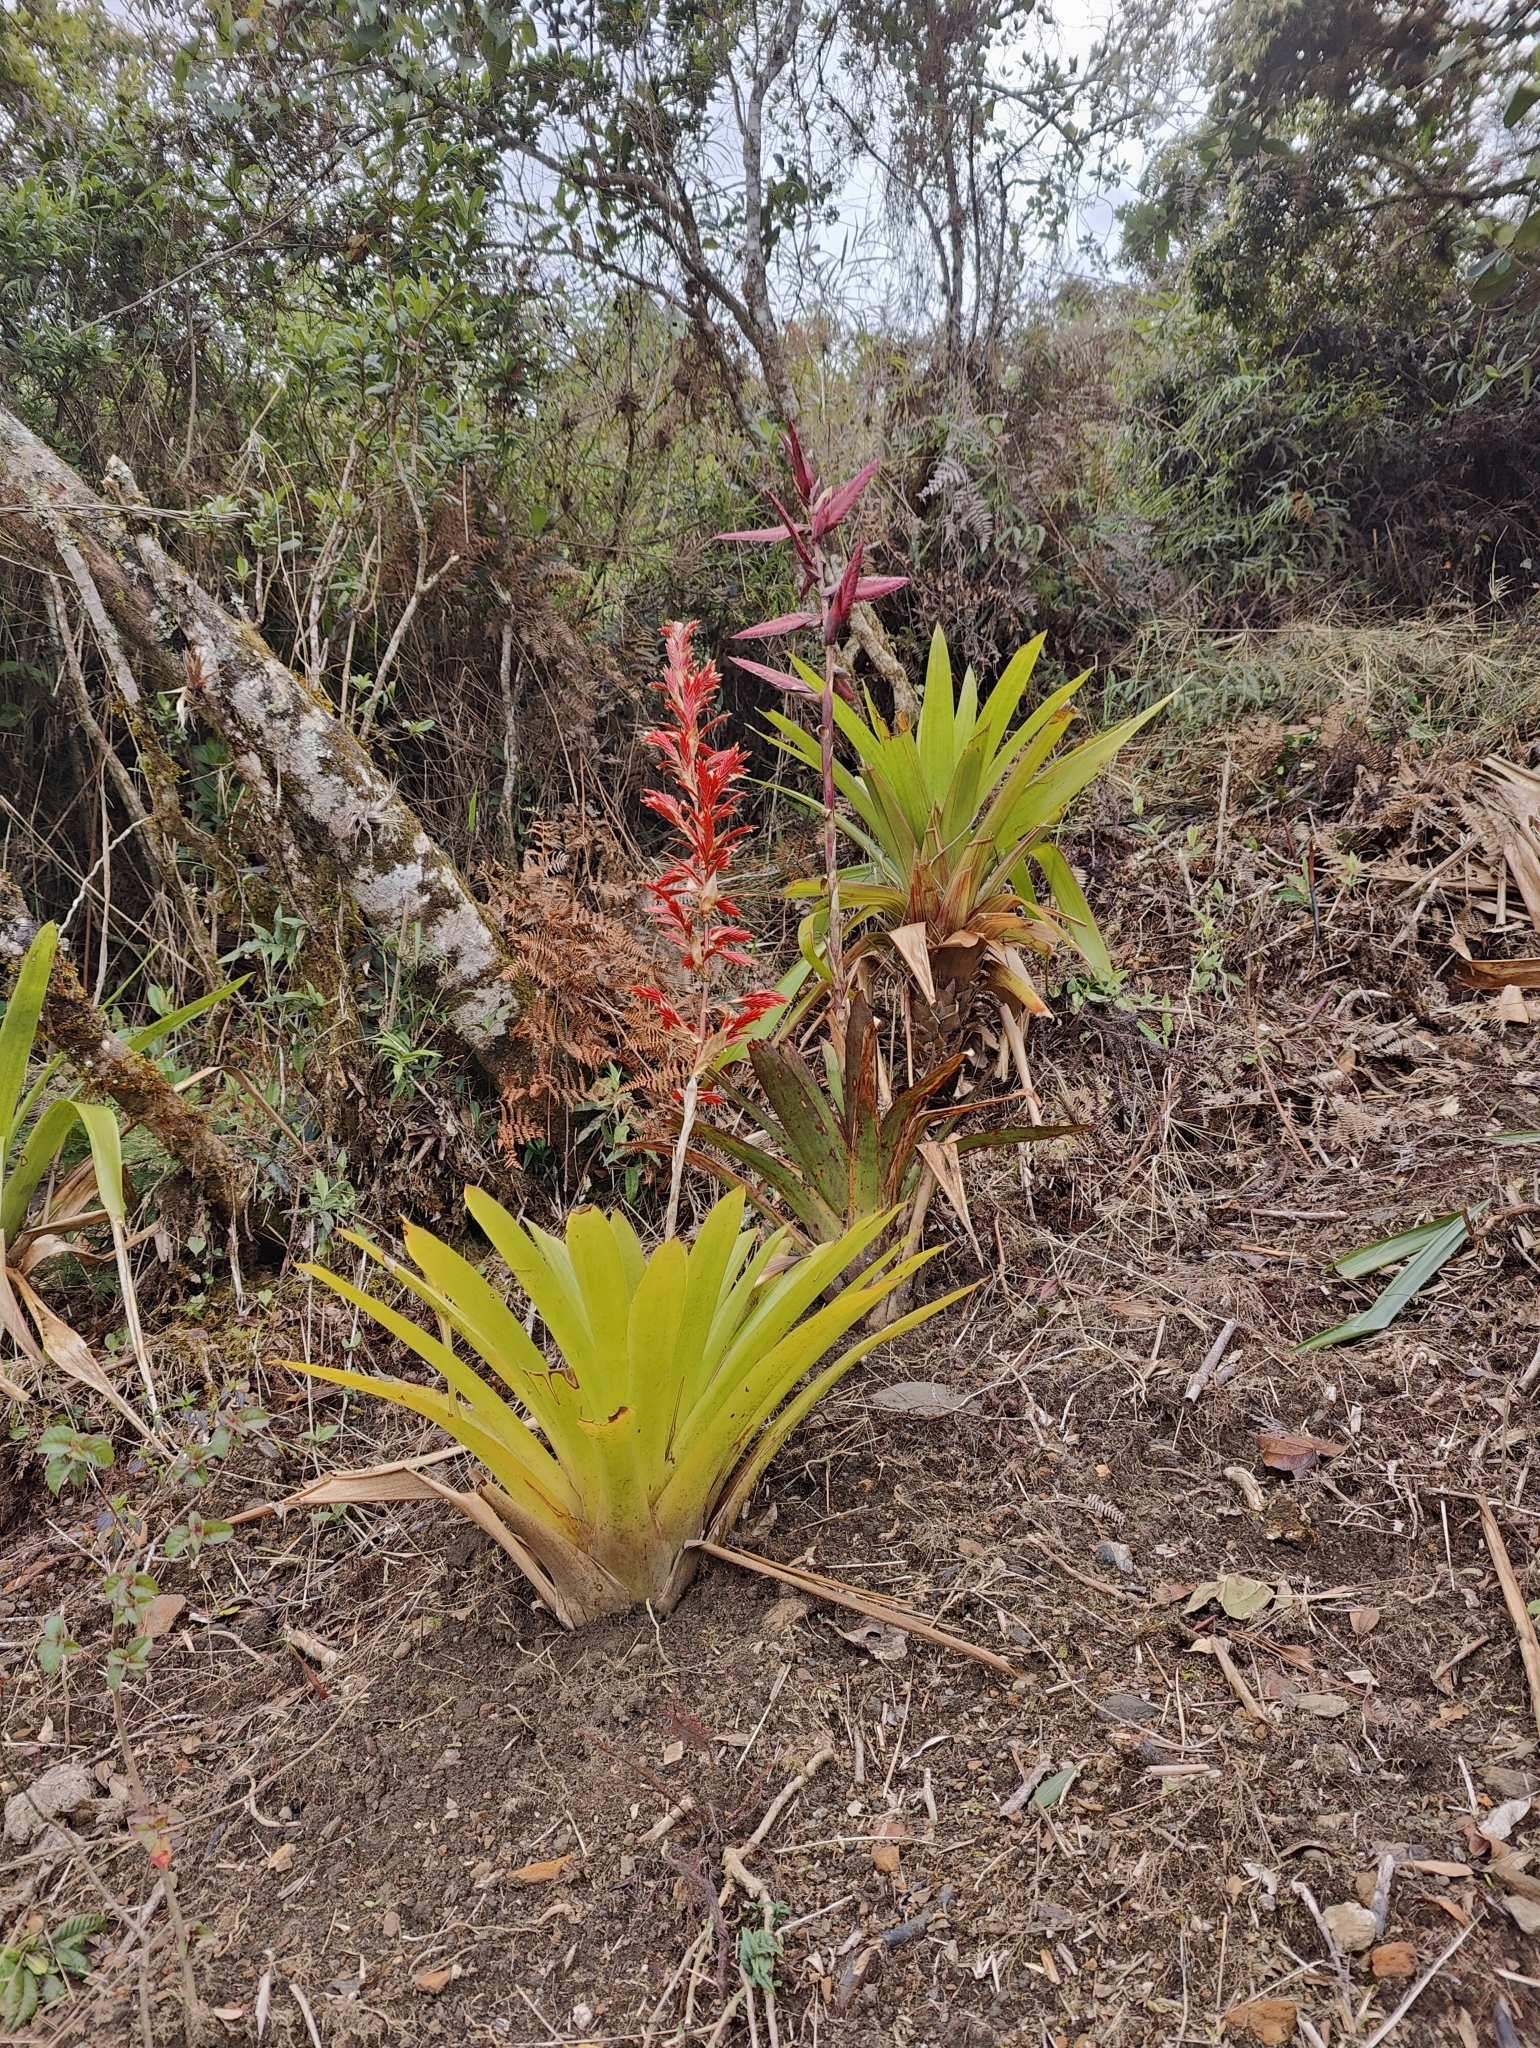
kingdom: Plantae
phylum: Tracheophyta
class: Liliopsida
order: Poales
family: Bromeliaceae
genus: Vriesea
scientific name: Vriesea elata
